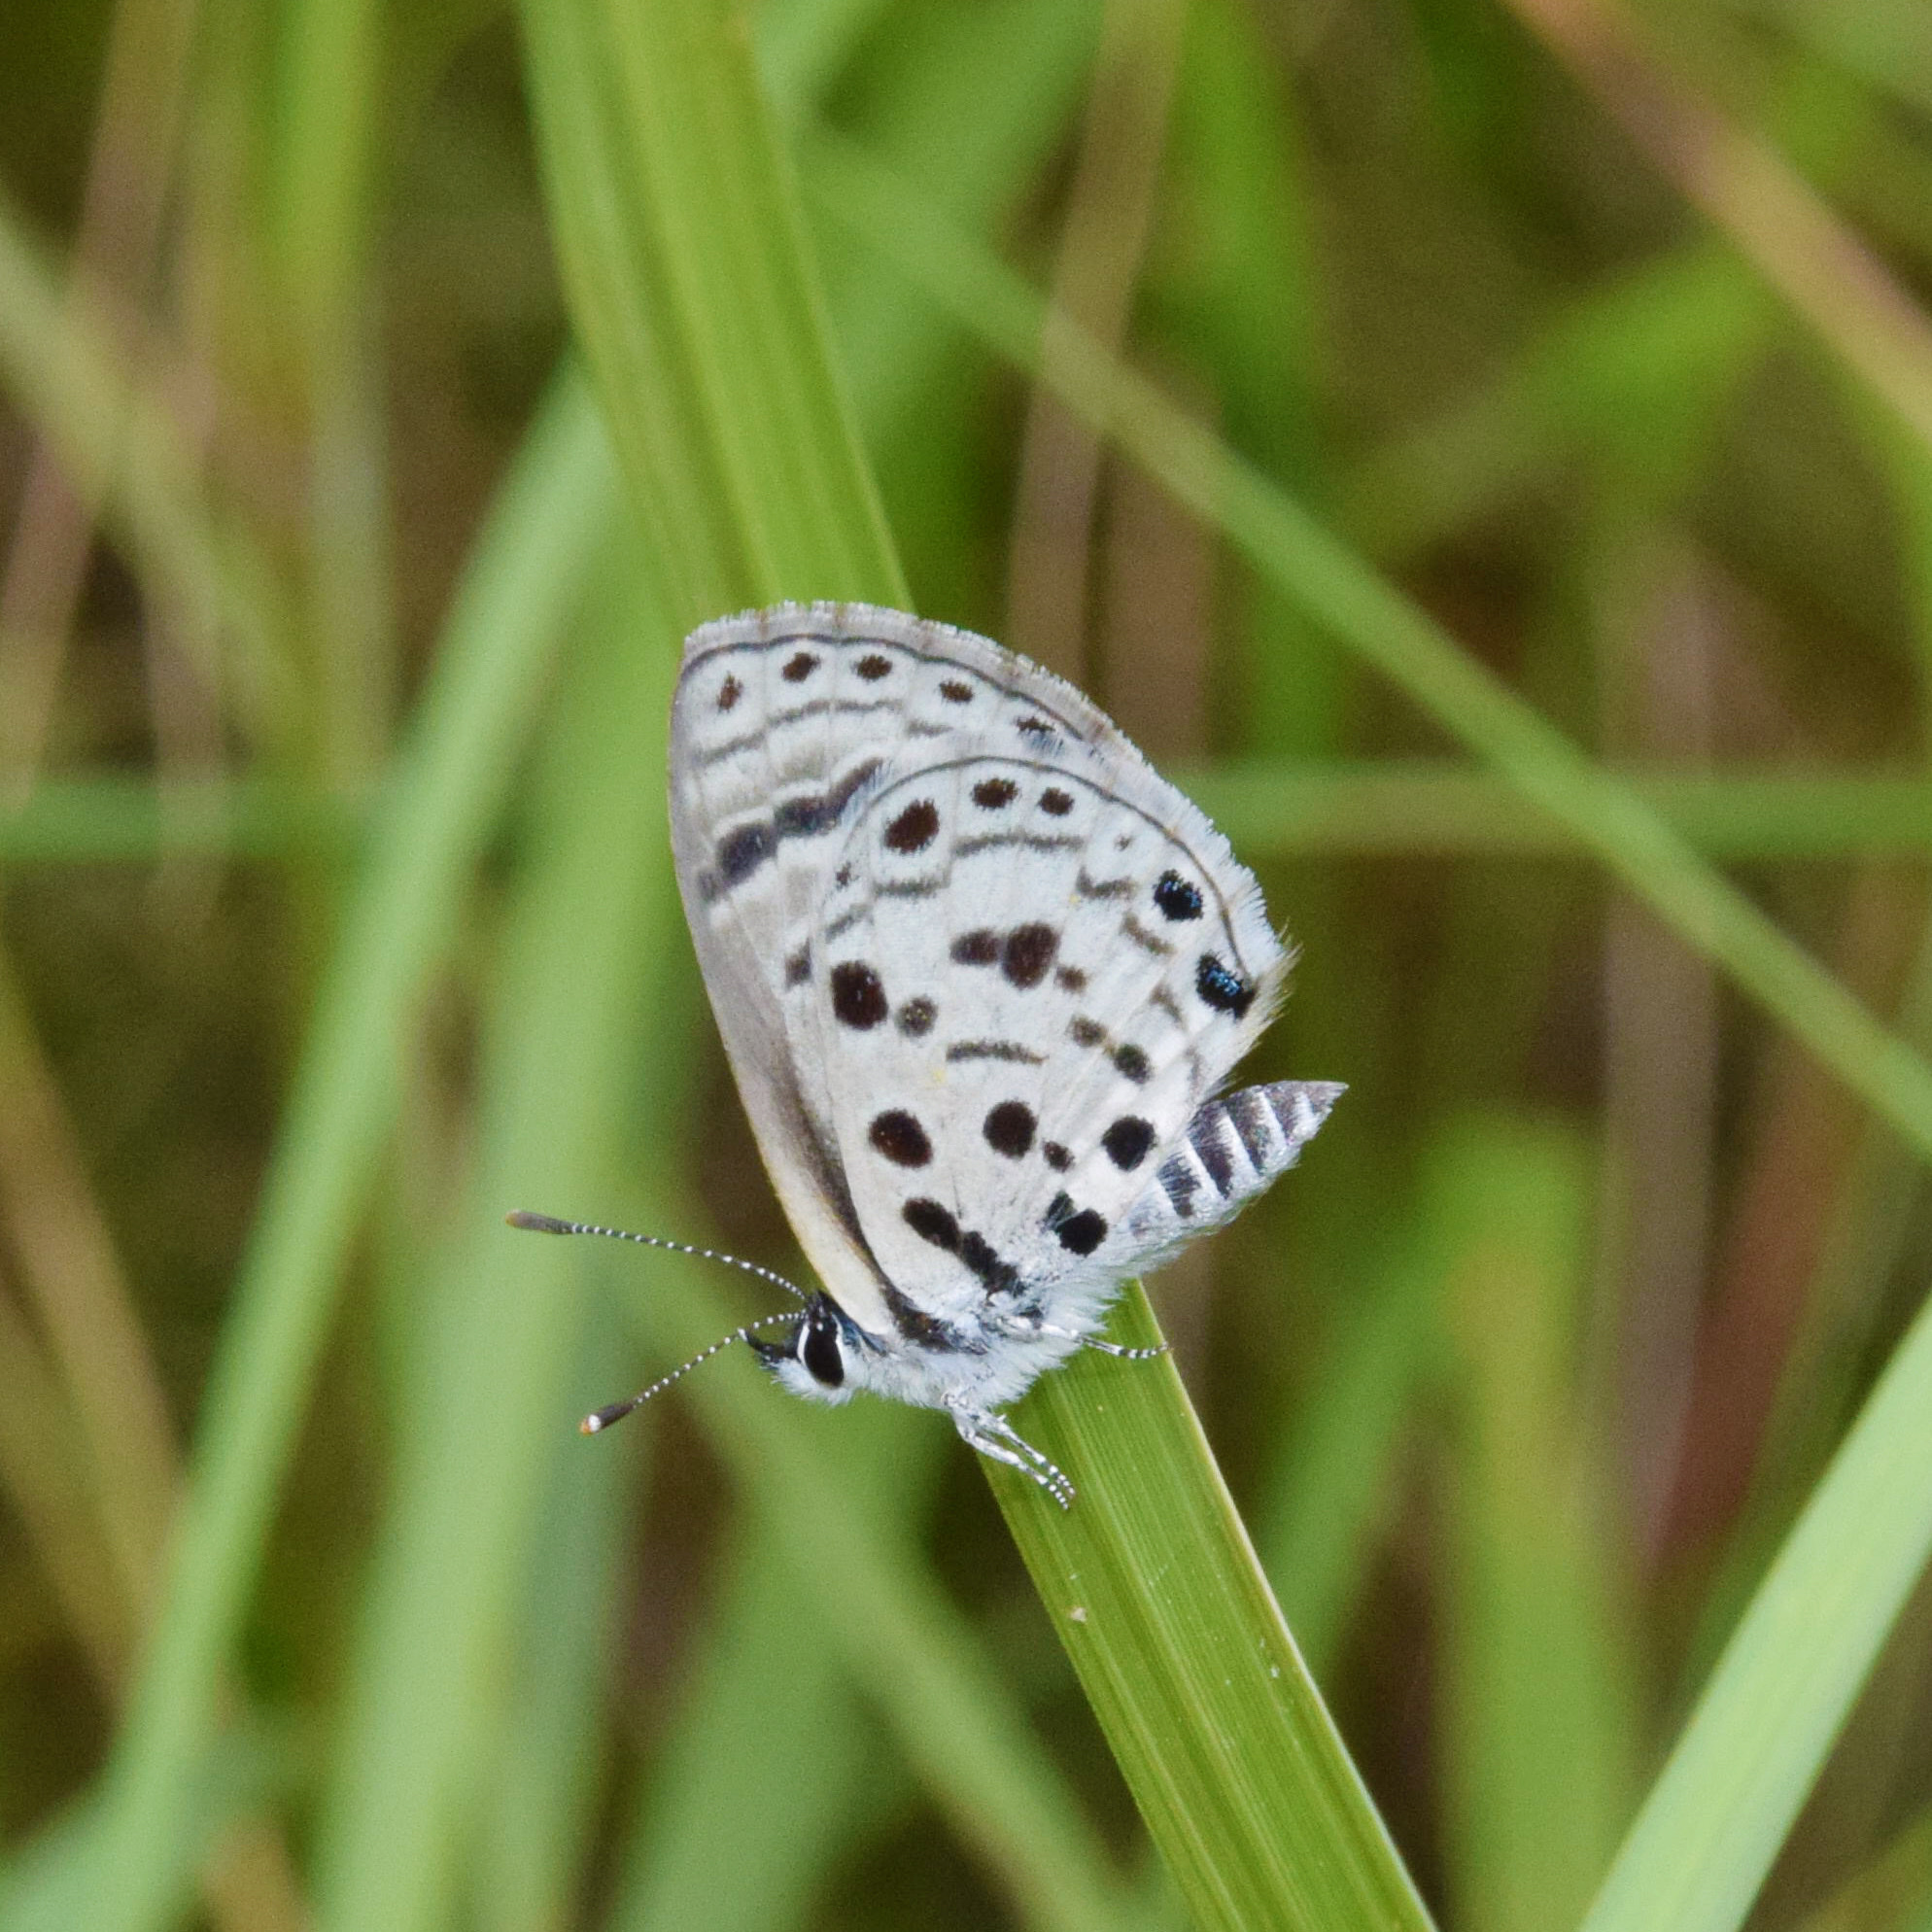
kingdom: Animalia
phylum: Arthropoda
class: Insecta
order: Lepidoptera
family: Lycaenidae
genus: Azanus
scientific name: Azanus moriqua
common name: Thorn-tree babul blue
